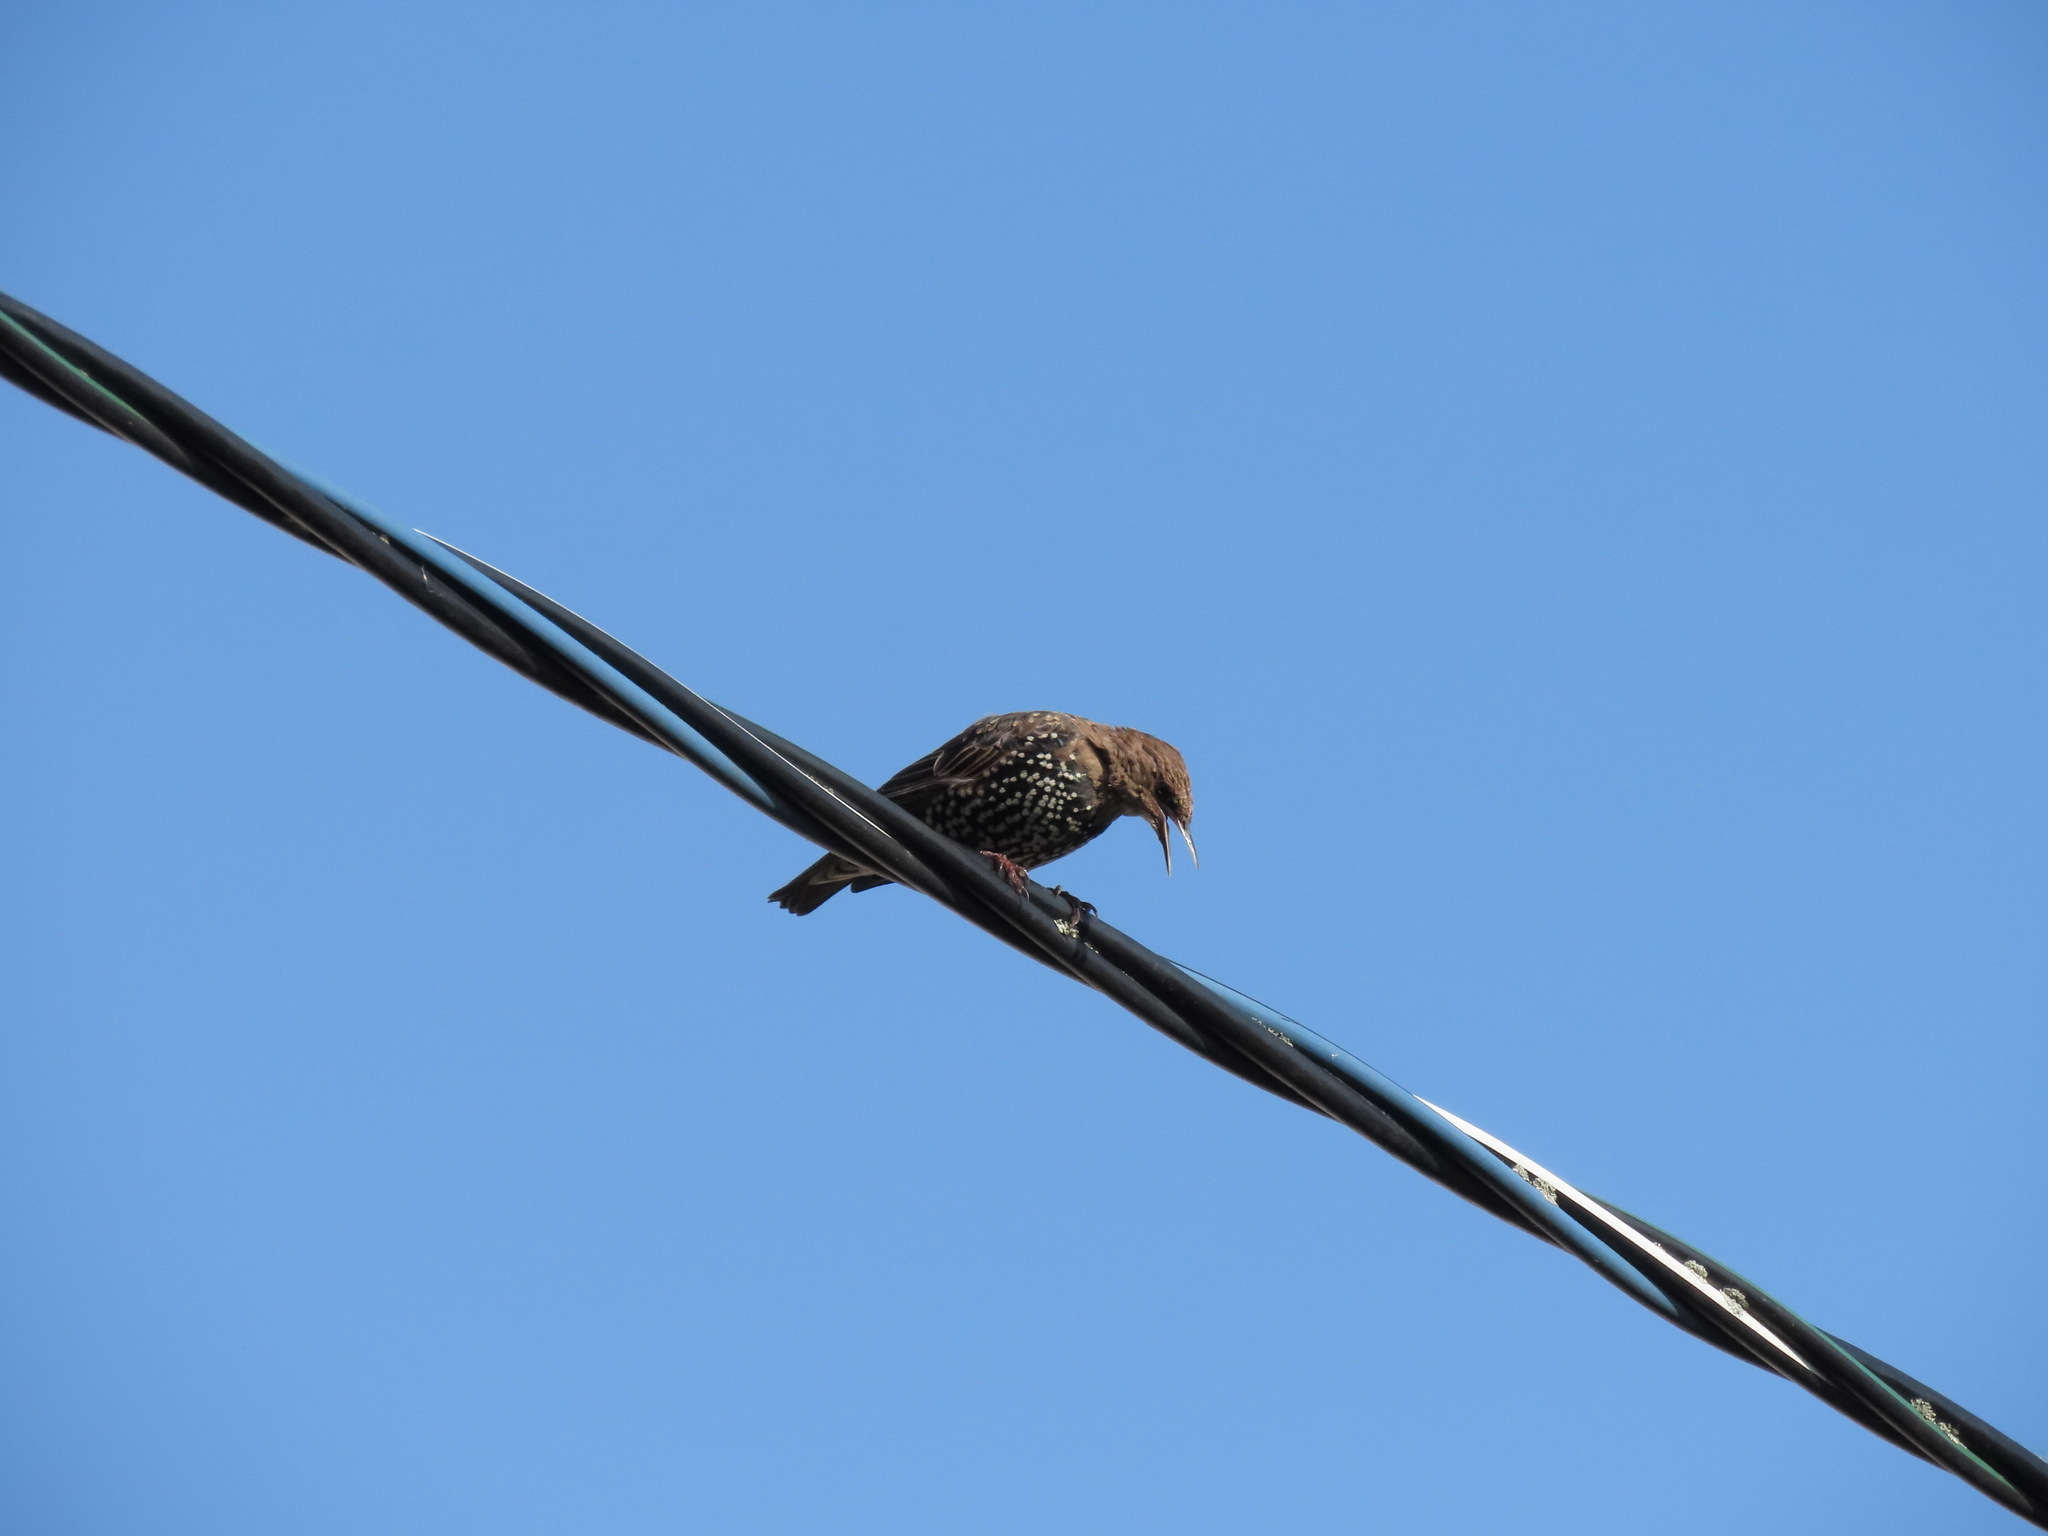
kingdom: Animalia
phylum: Chordata
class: Aves
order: Passeriformes
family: Sturnidae
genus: Sturnus
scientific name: Sturnus vulgaris
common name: Common starling
